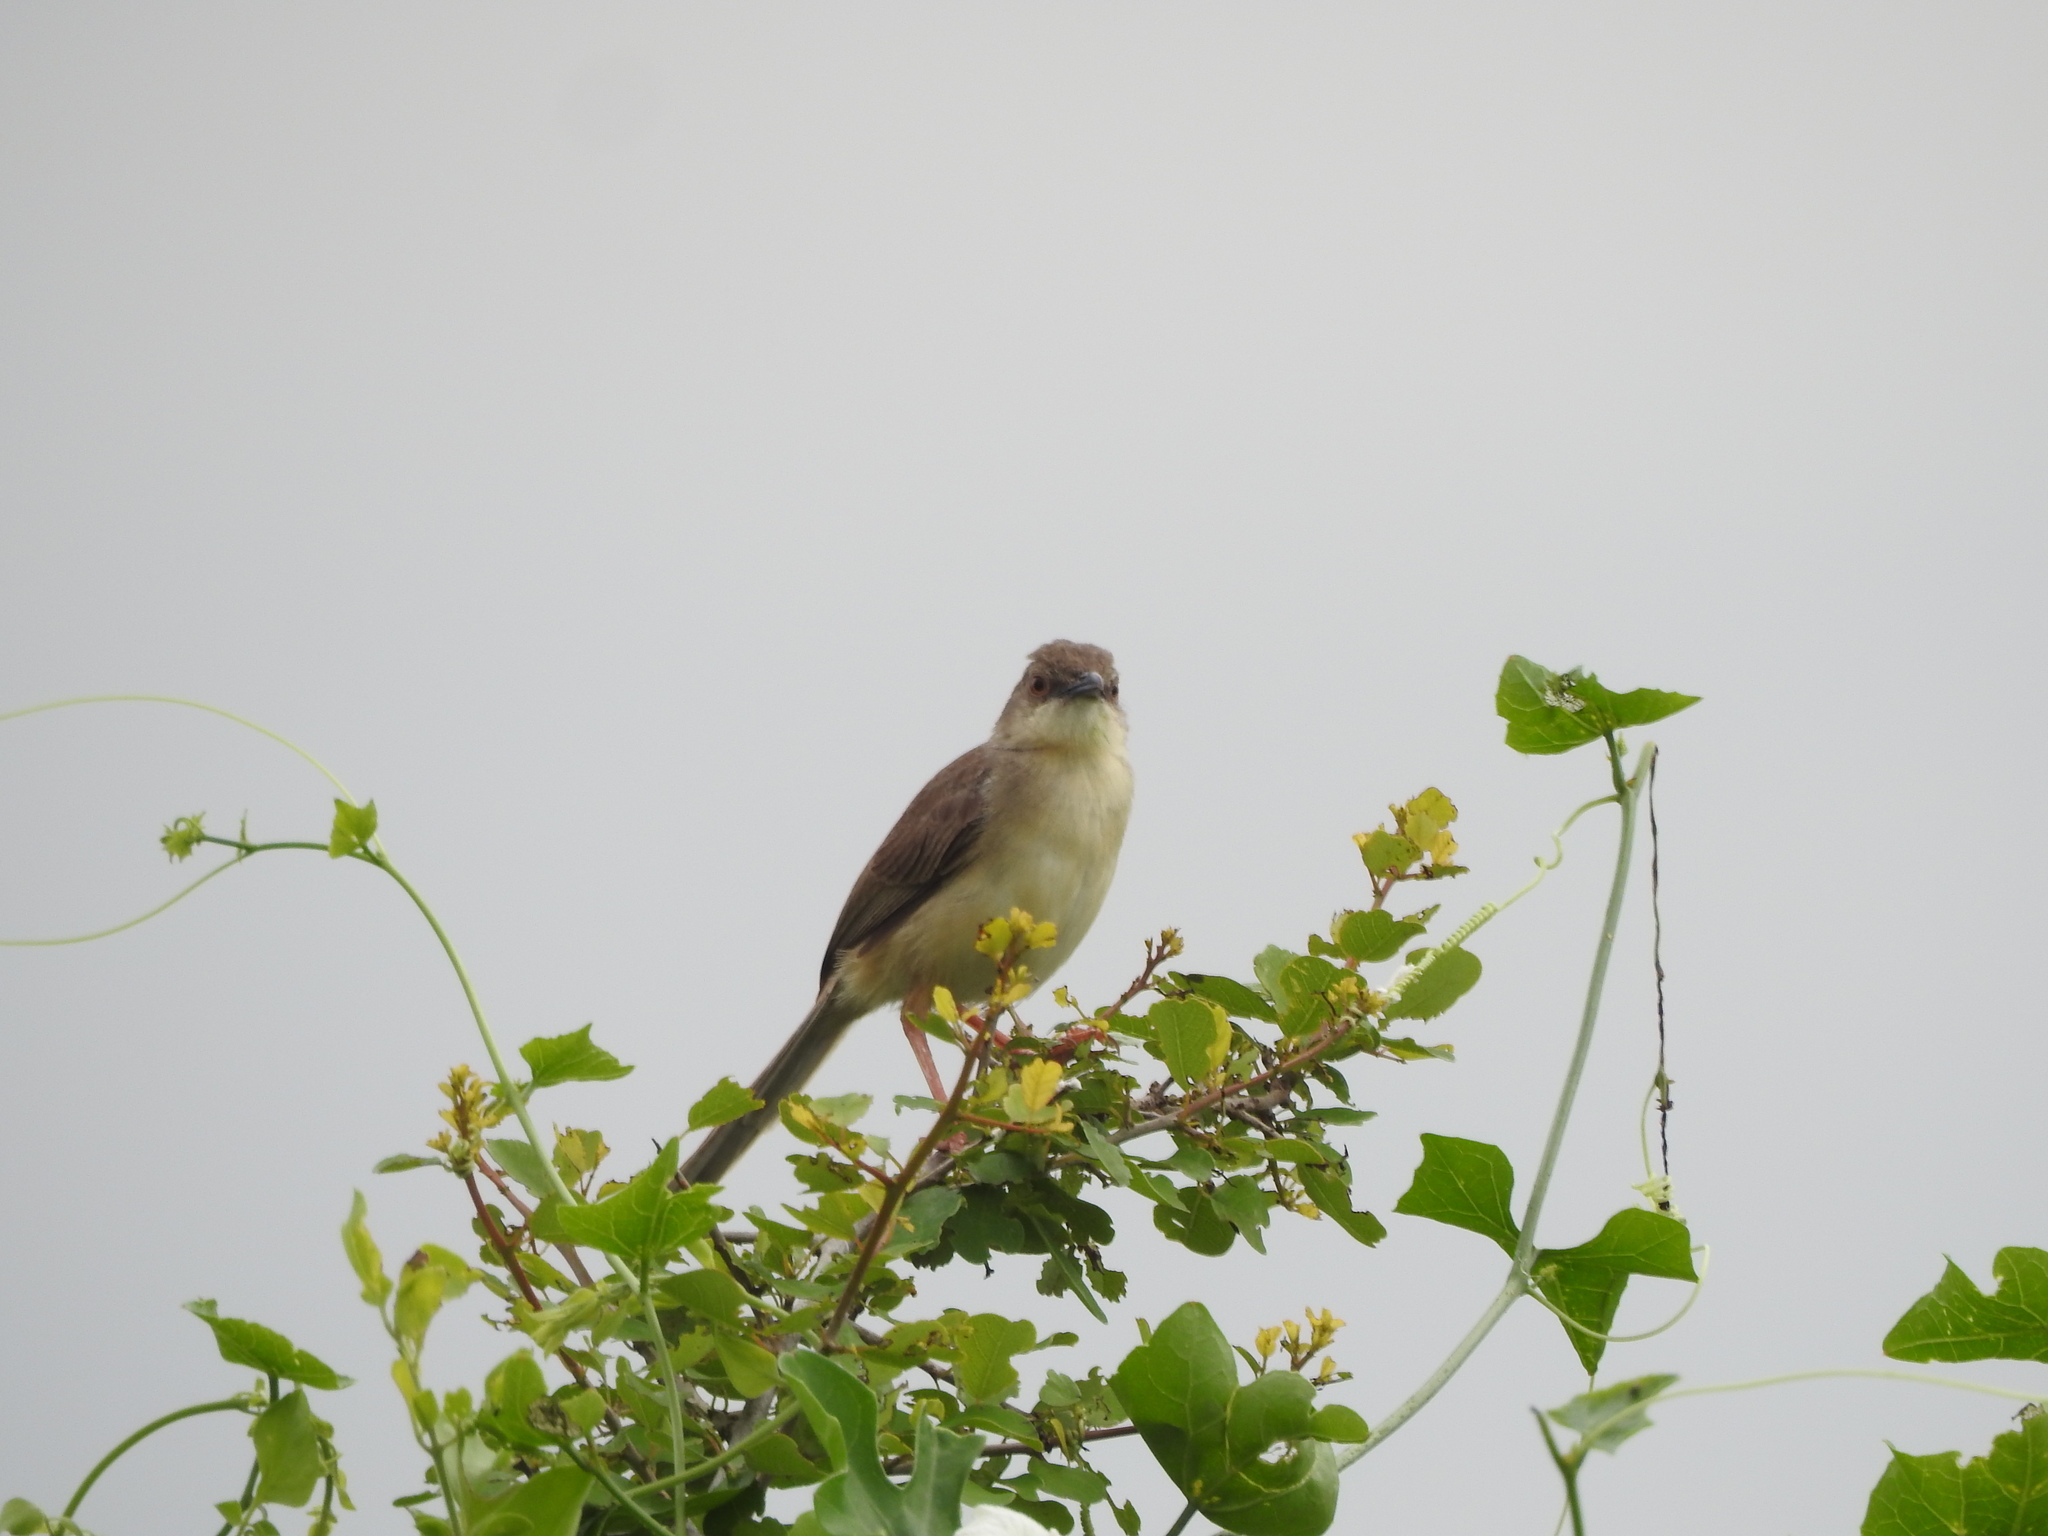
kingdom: Animalia
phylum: Chordata
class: Aves
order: Passeriformes
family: Cisticolidae
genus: Prinia
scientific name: Prinia sylvatica
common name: Jungle prinia
